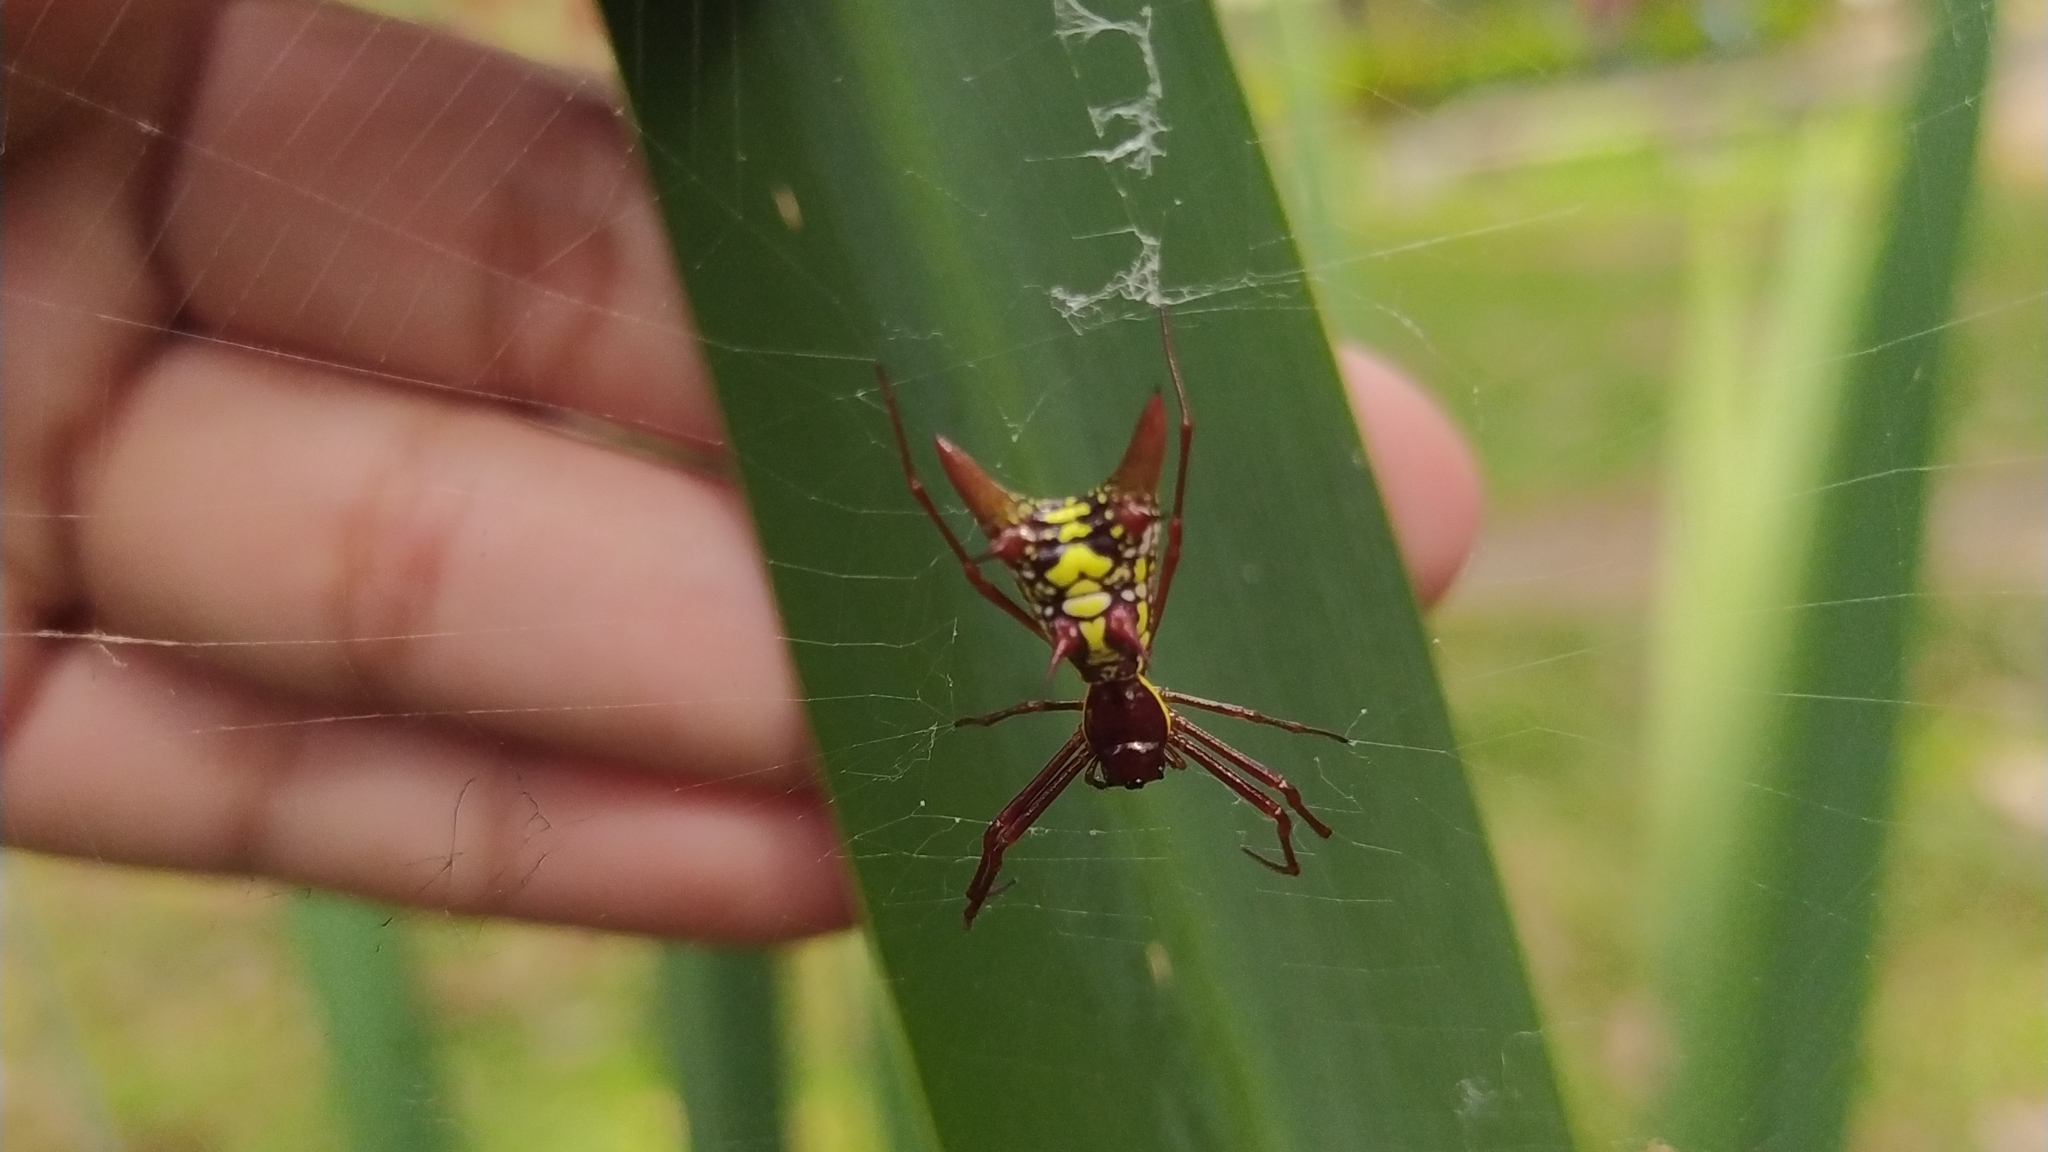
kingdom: Animalia
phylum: Arthropoda
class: Arachnida
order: Araneae
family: Araneidae
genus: Micrathena
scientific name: Micrathena sexspinosa
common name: Orb weavers
